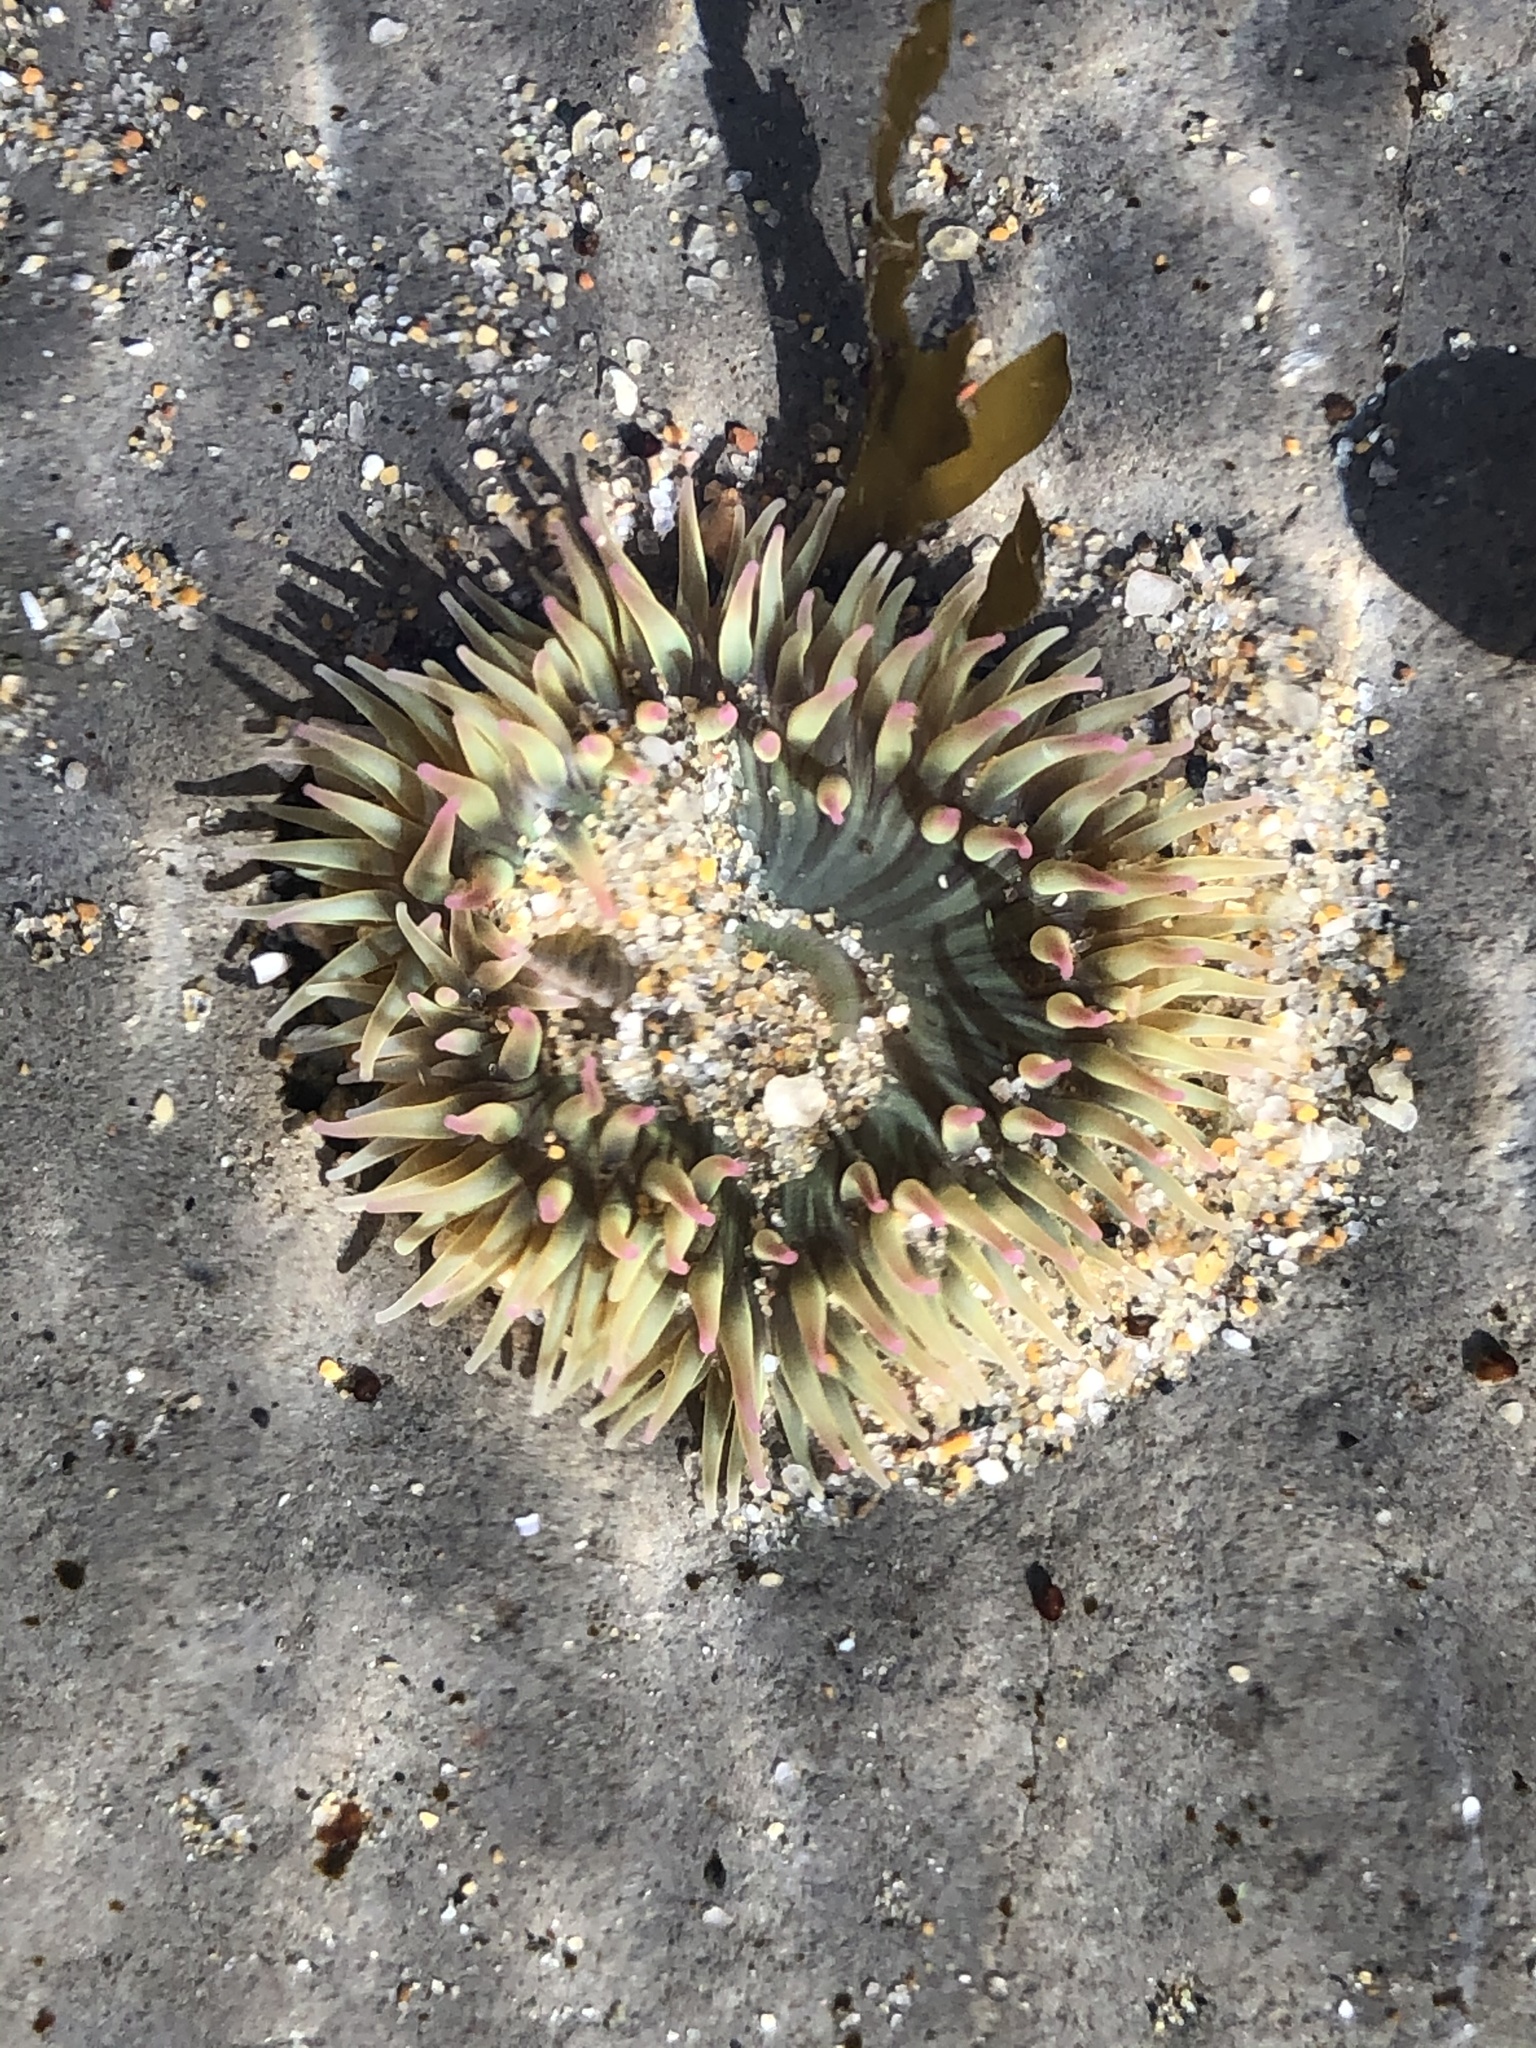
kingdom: Animalia
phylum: Cnidaria
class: Anthozoa
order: Actiniaria
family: Actiniidae
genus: Anthopleura
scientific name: Anthopleura elegantissima
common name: Clonal anemone
